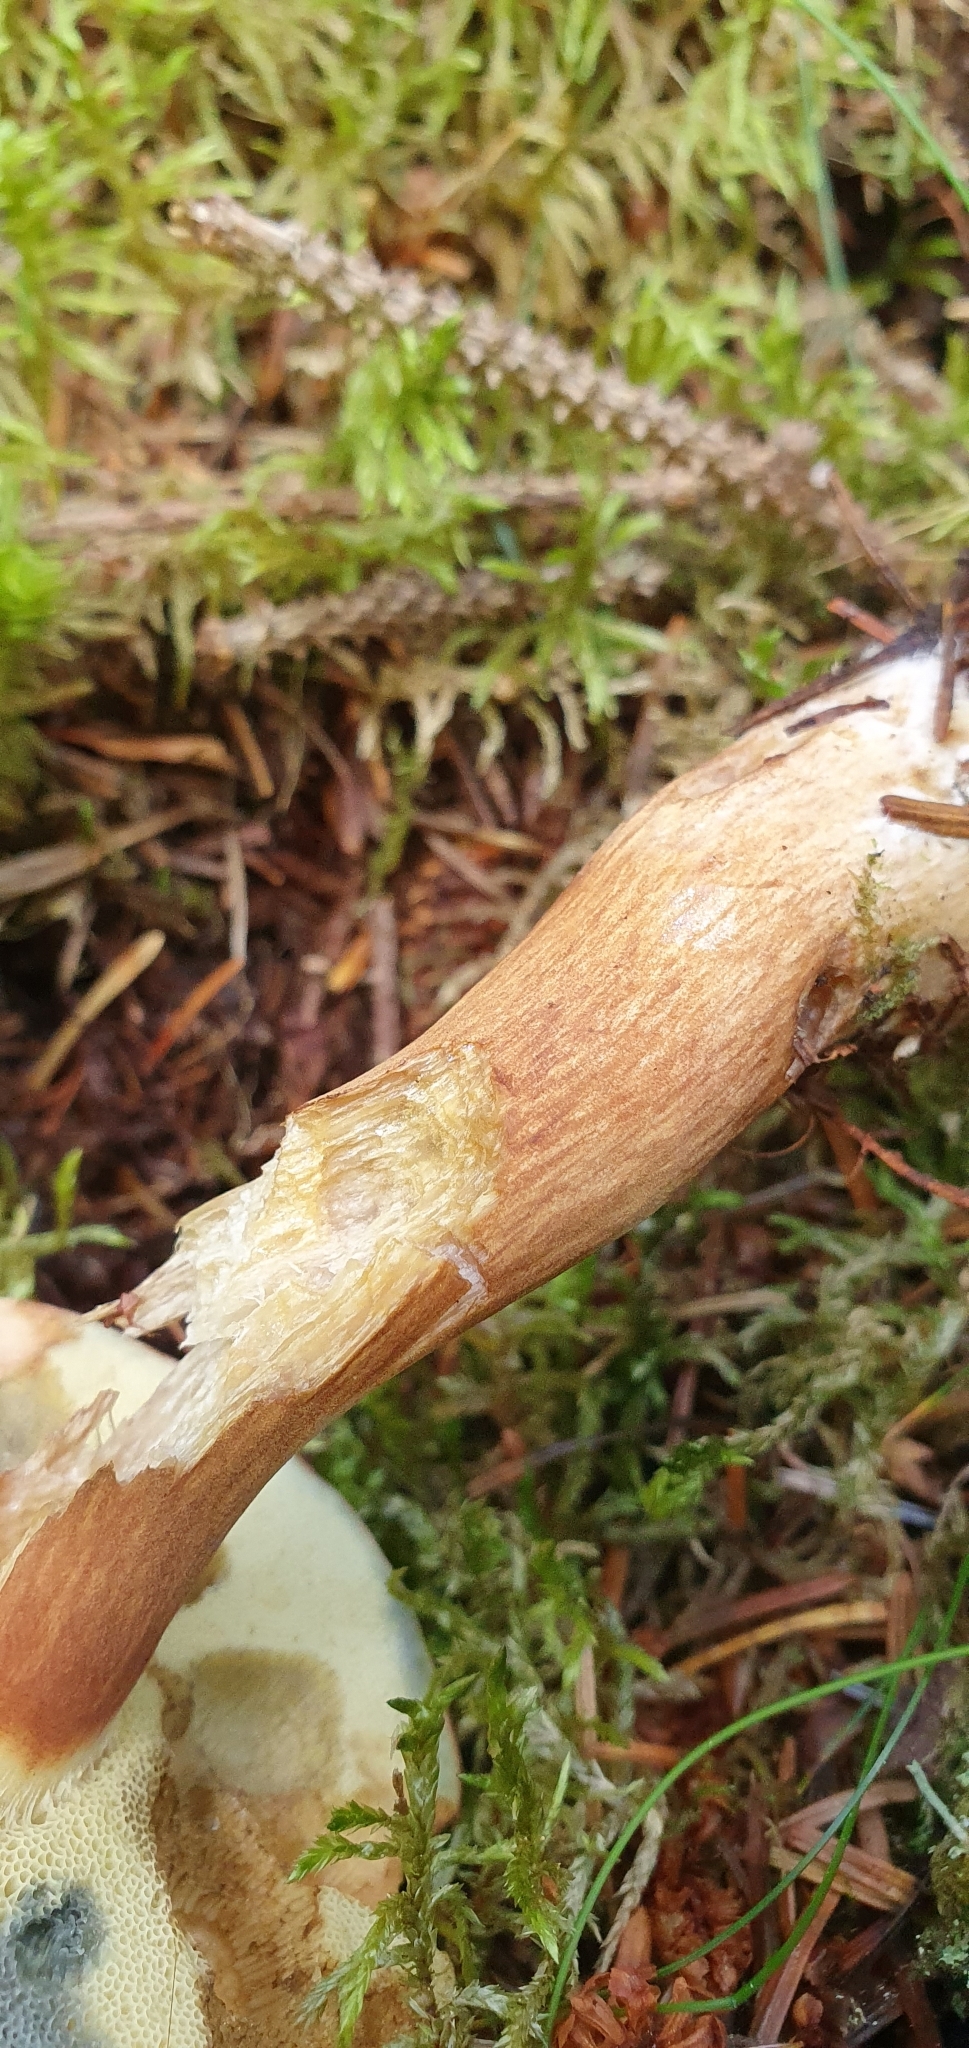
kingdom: Fungi
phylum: Basidiomycota
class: Agaricomycetes
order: Boletales
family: Boletaceae
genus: Imleria
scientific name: Imleria badia
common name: Bay bolete
